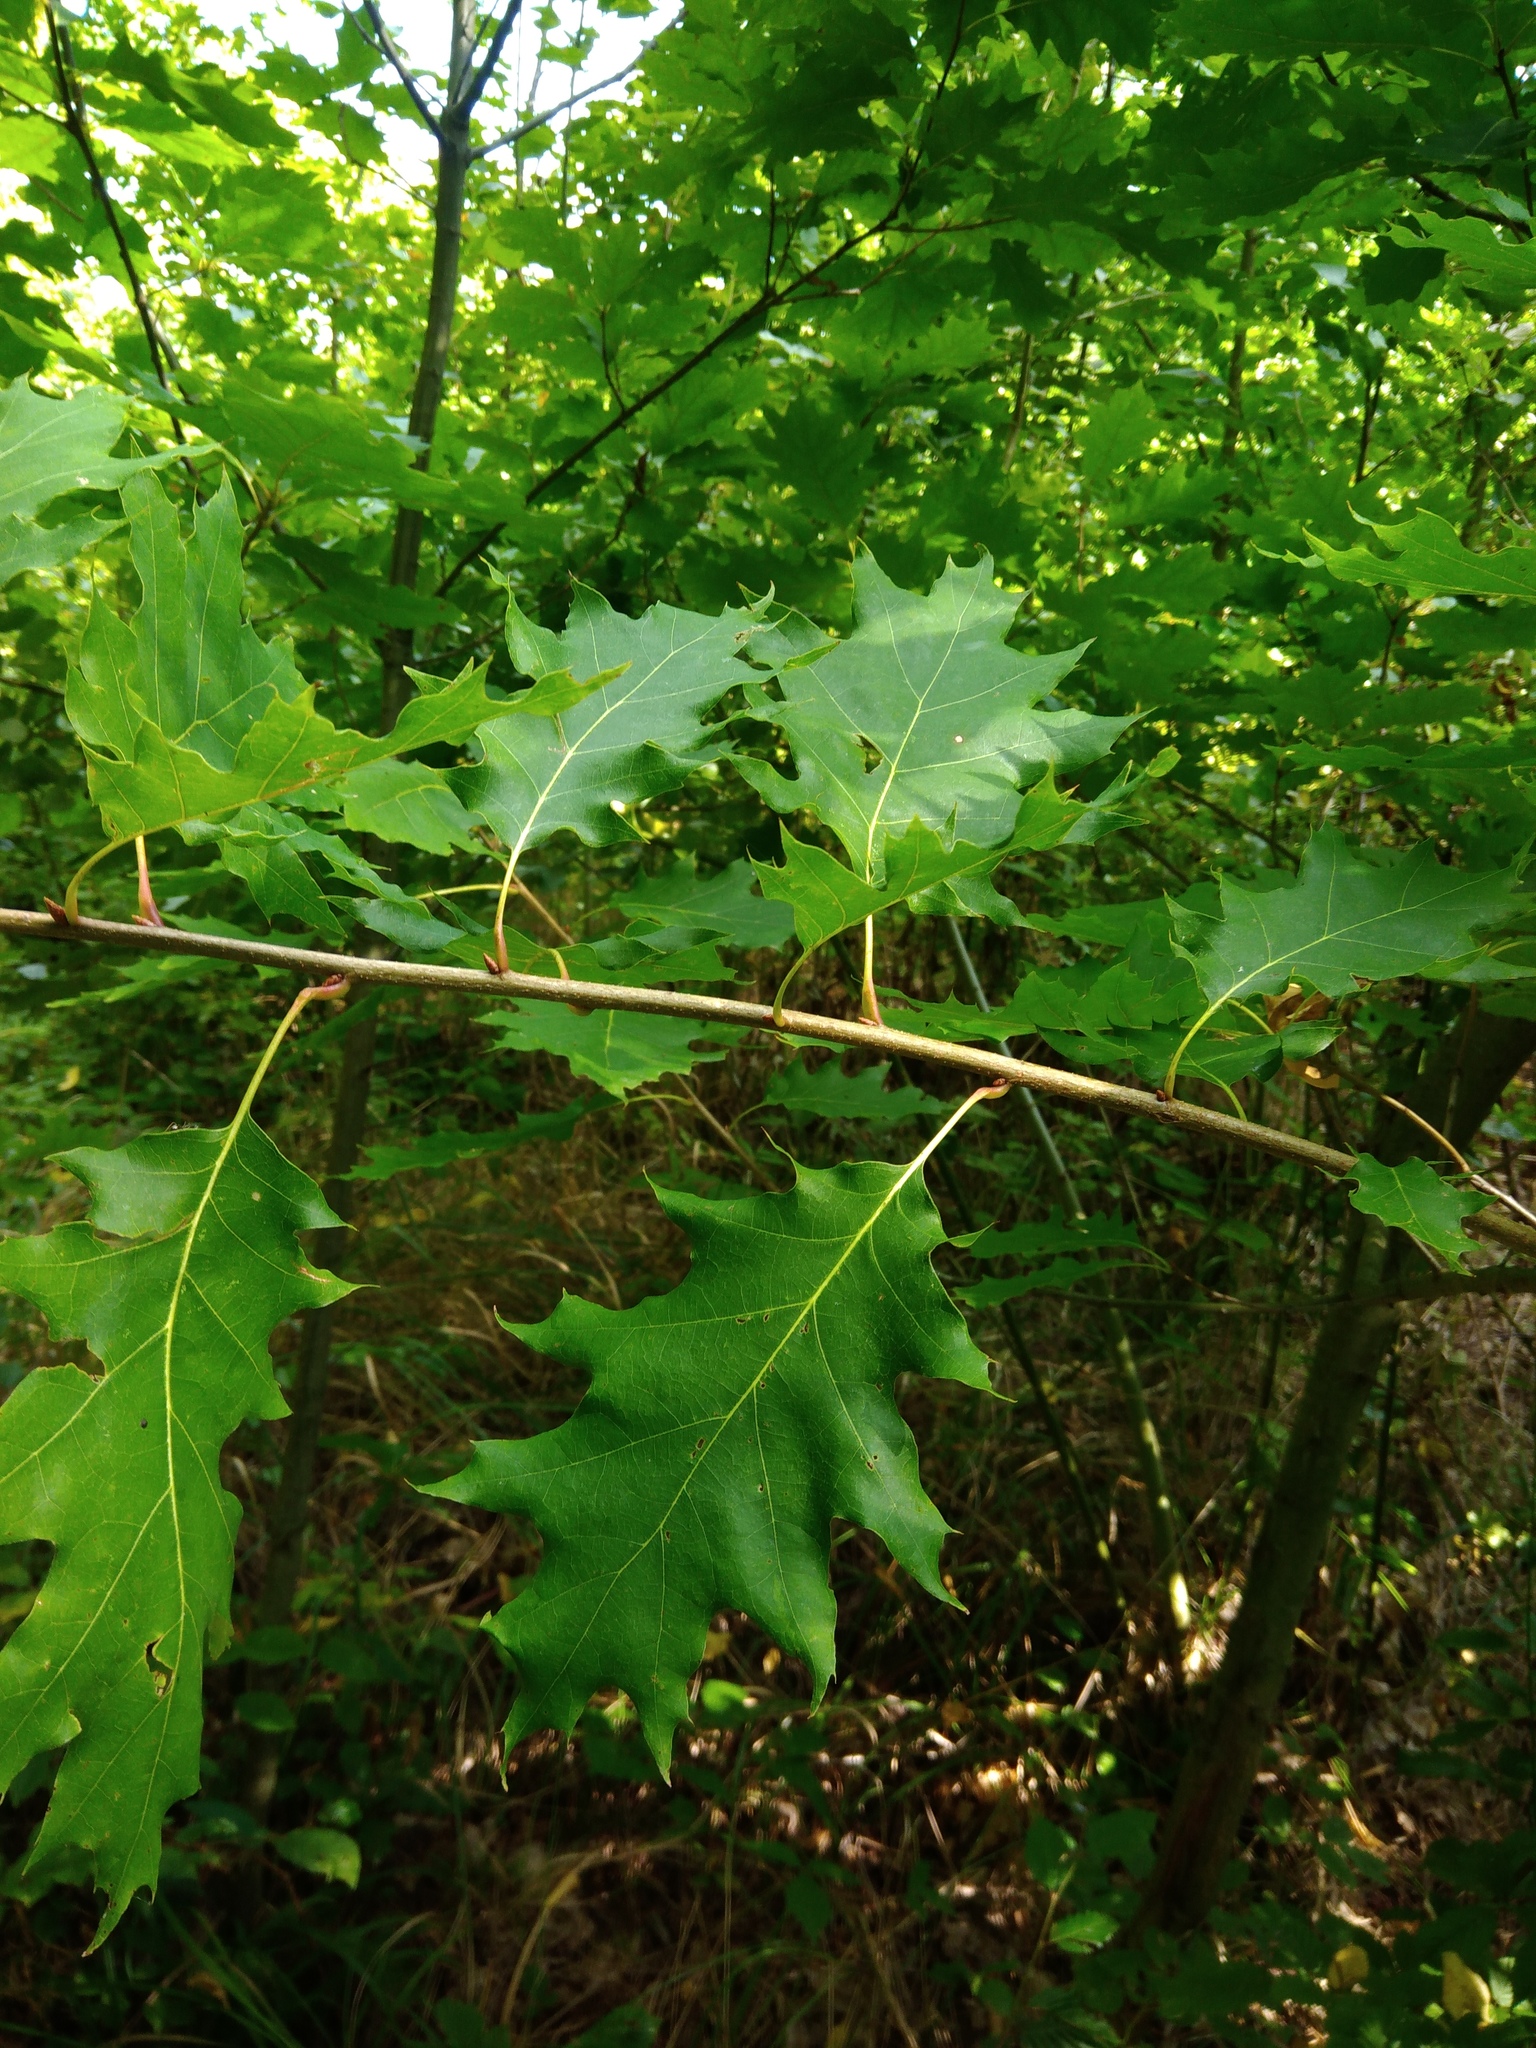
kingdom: Plantae
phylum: Tracheophyta
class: Magnoliopsida
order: Fagales
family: Fagaceae
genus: Quercus
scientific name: Quercus rubra
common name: Red oak
